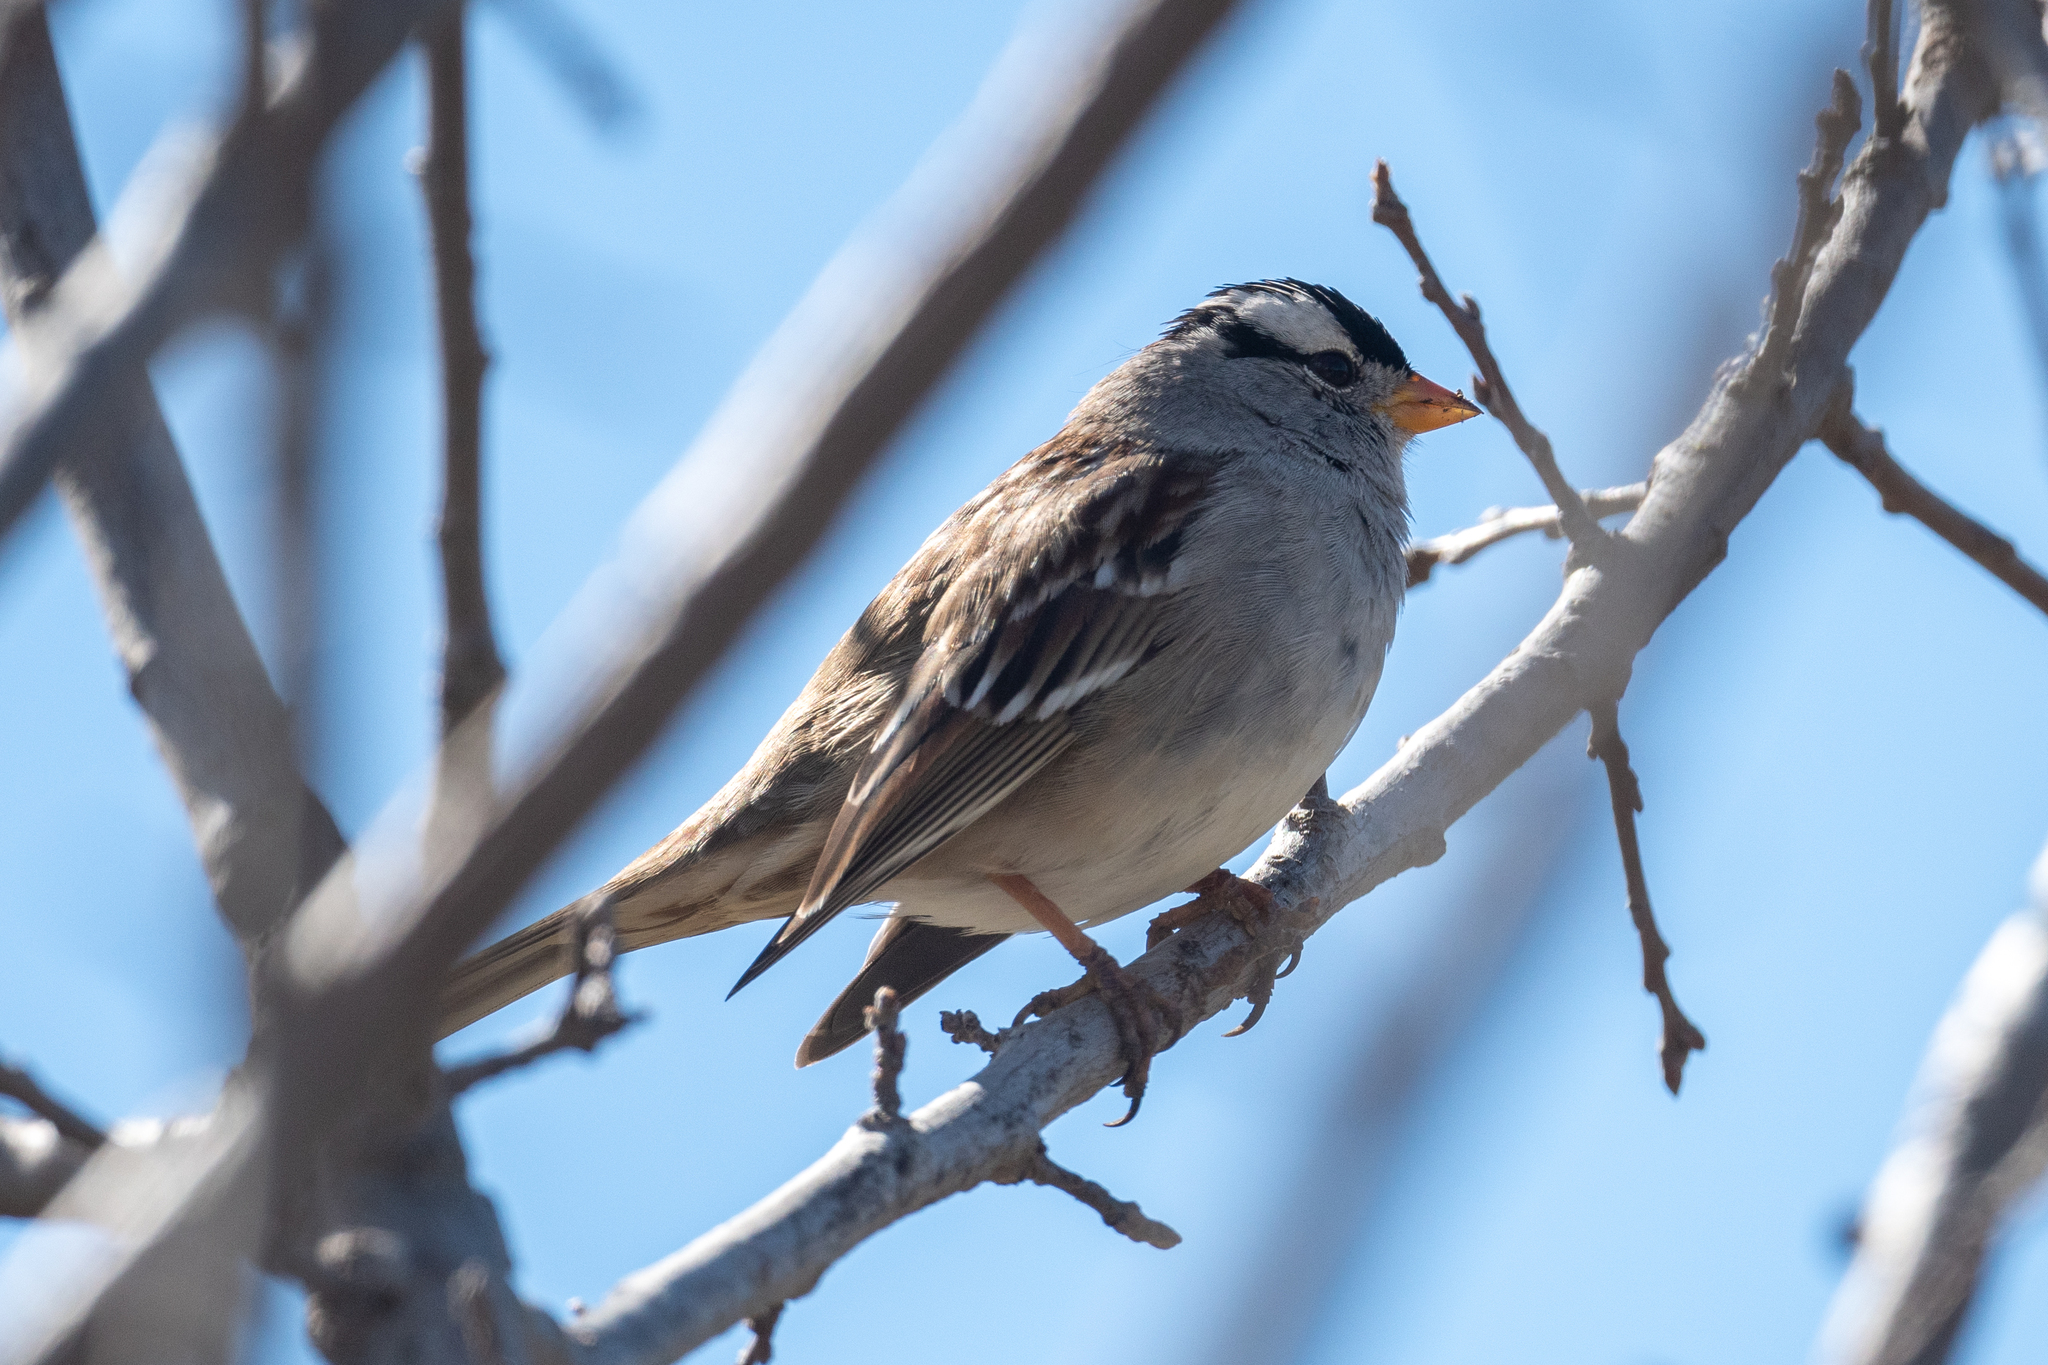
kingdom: Animalia
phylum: Chordata
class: Aves
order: Passeriformes
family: Passerellidae
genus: Zonotrichia
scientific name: Zonotrichia leucophrys
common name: White-crowned sparrow
